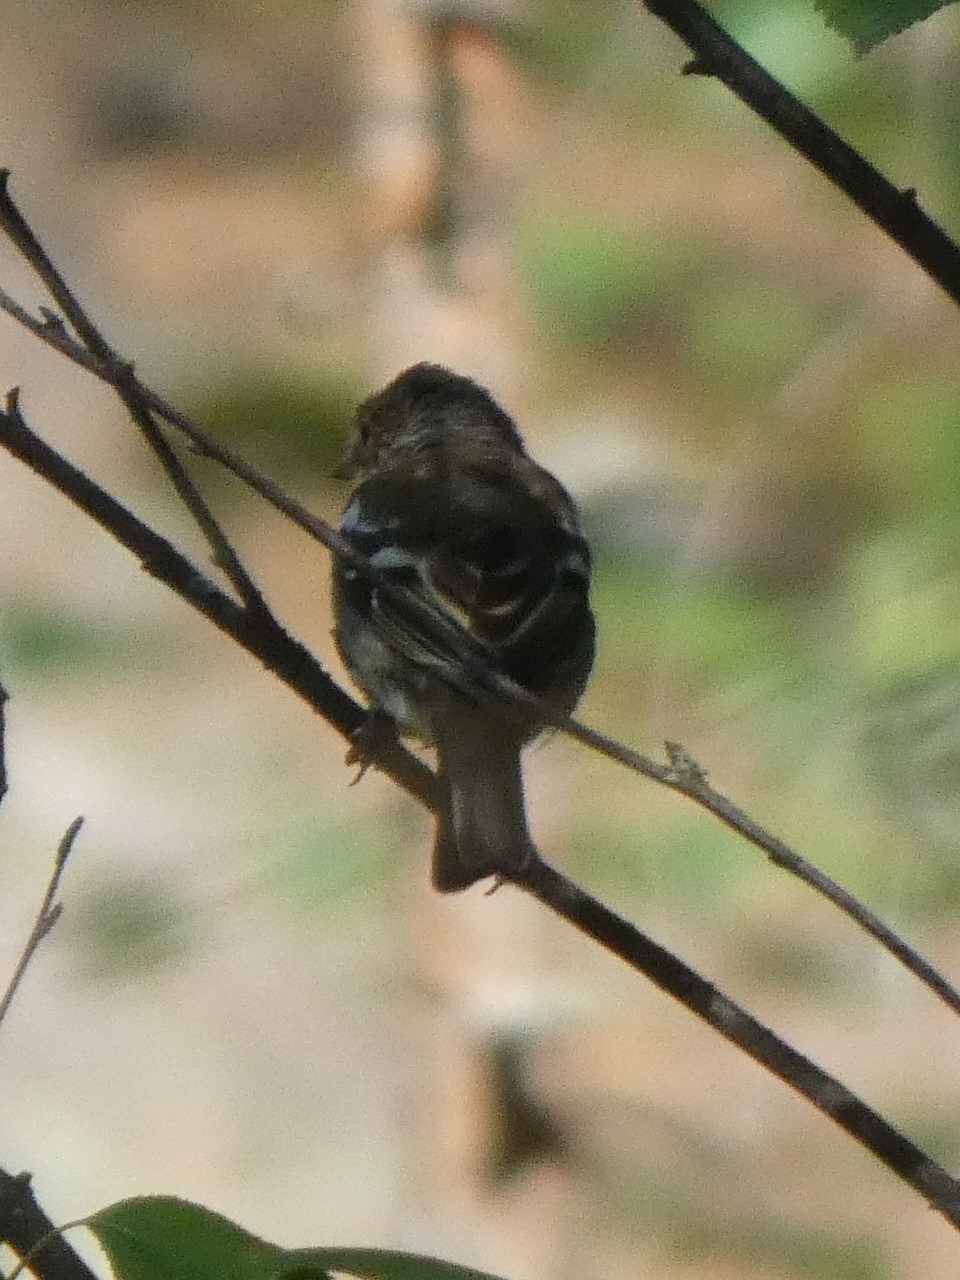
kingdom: Animalia
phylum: Chordata
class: Aves
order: Passeriformes
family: Fringillidae
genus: Fringilla
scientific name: Fringilla coelebs
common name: Common chaffinch
